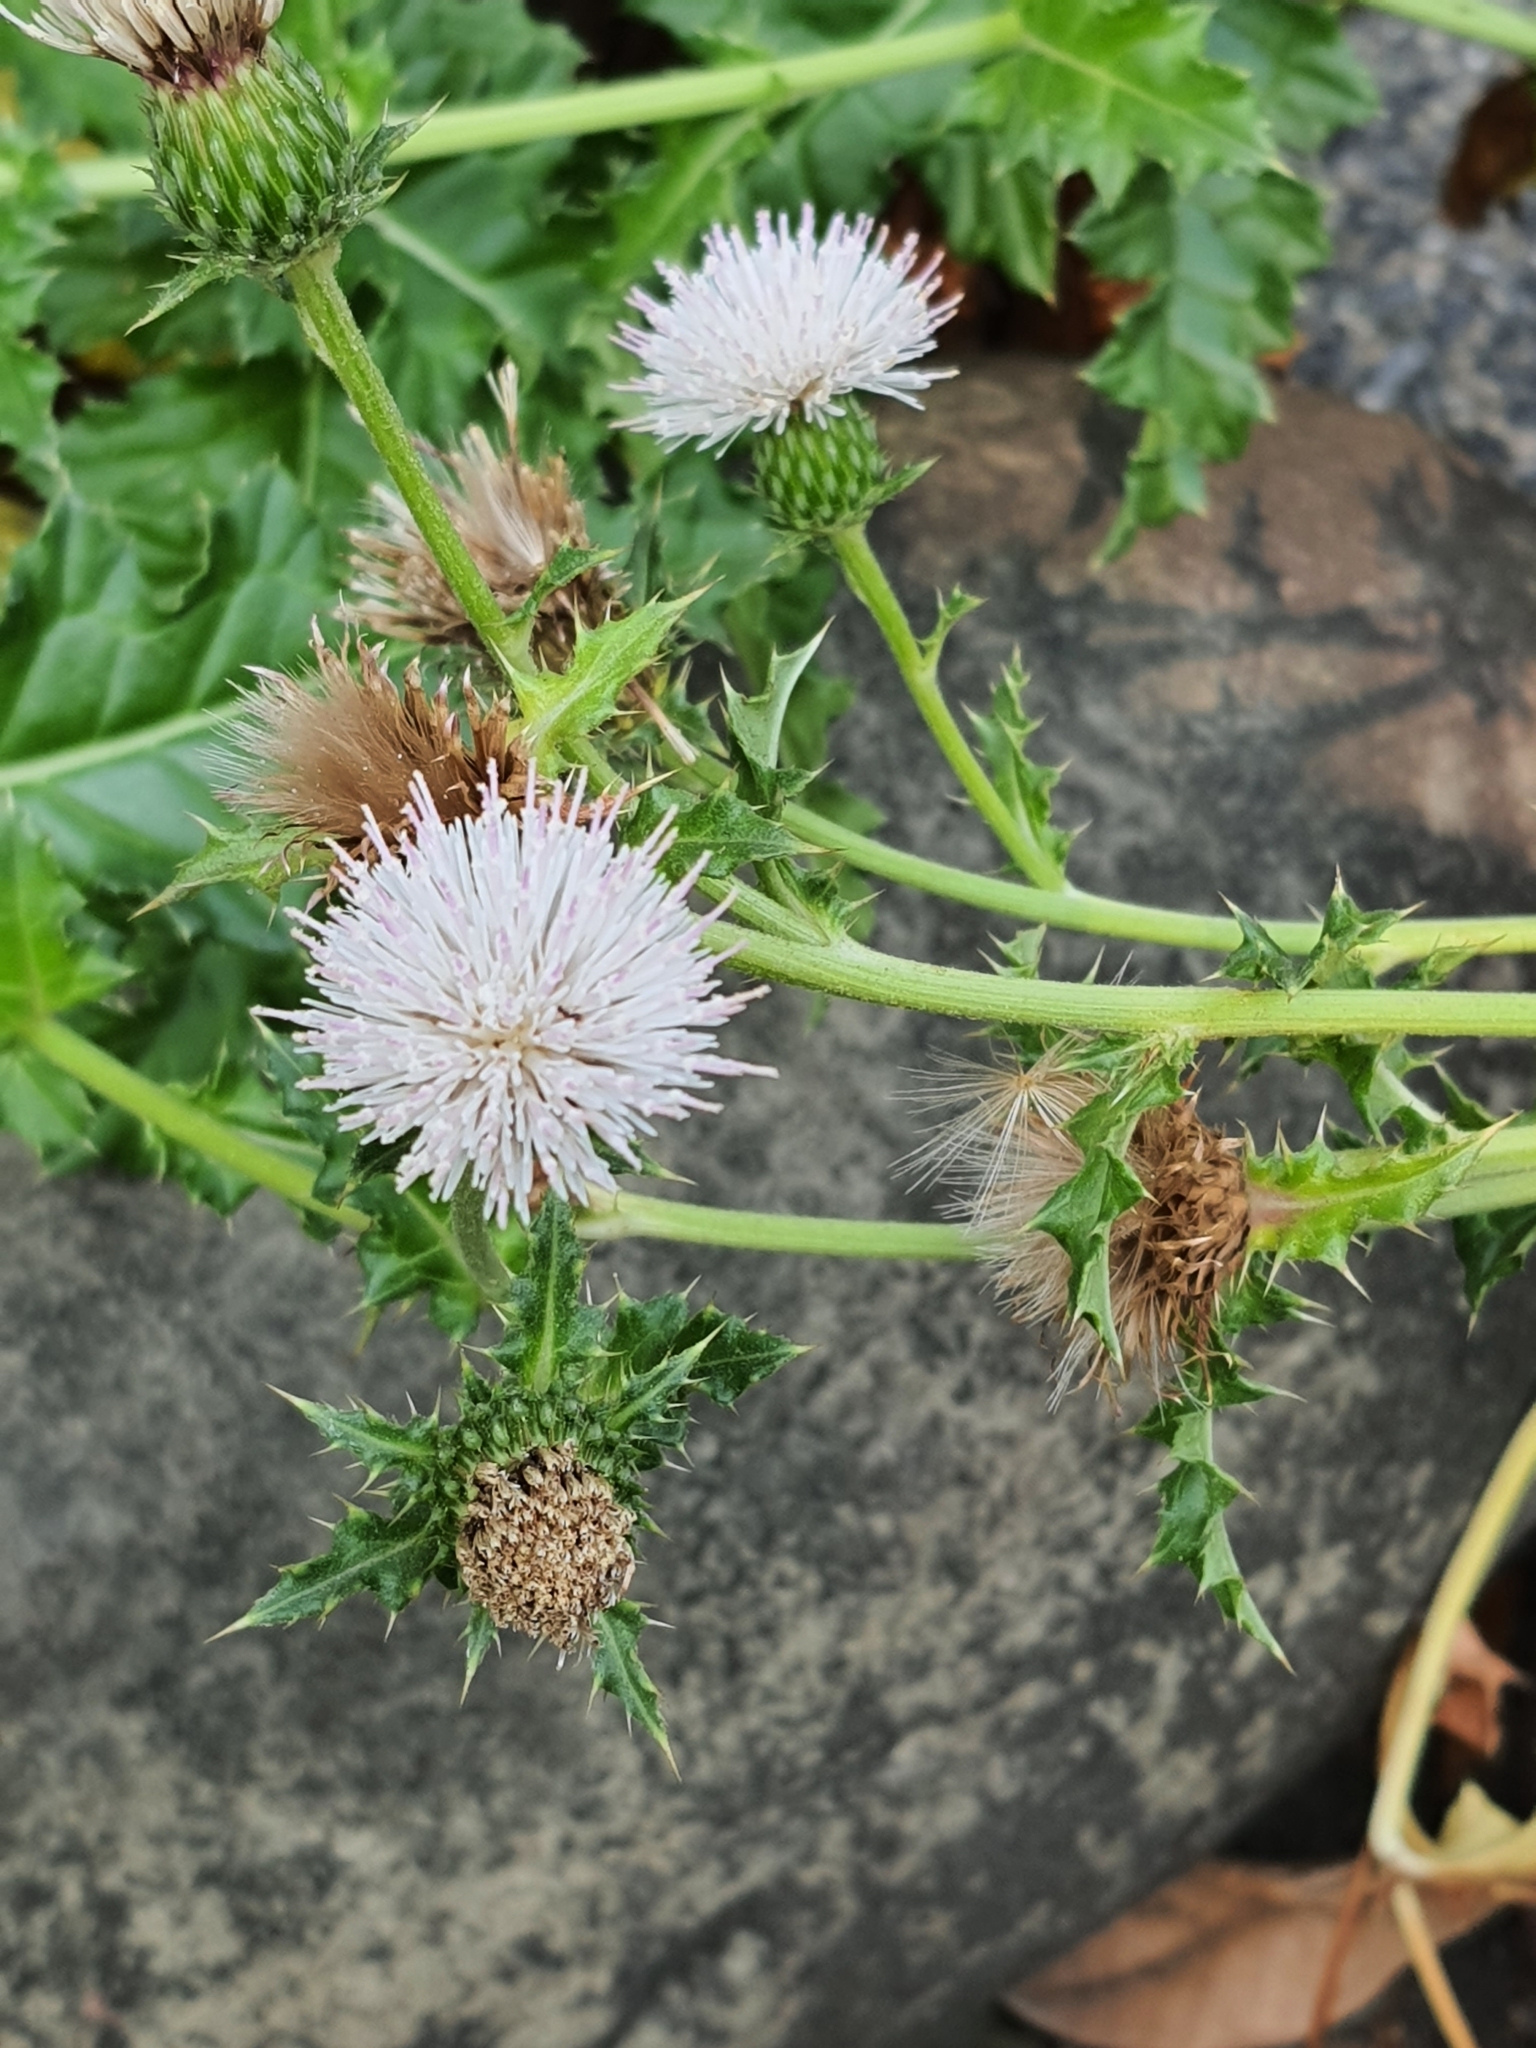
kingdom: Plantae
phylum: Tracheophyta
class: Magnoliopsida
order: Asterales
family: Asteraceae
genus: Cirsium
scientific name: Cirsium japonicum
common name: Japanese thistle
